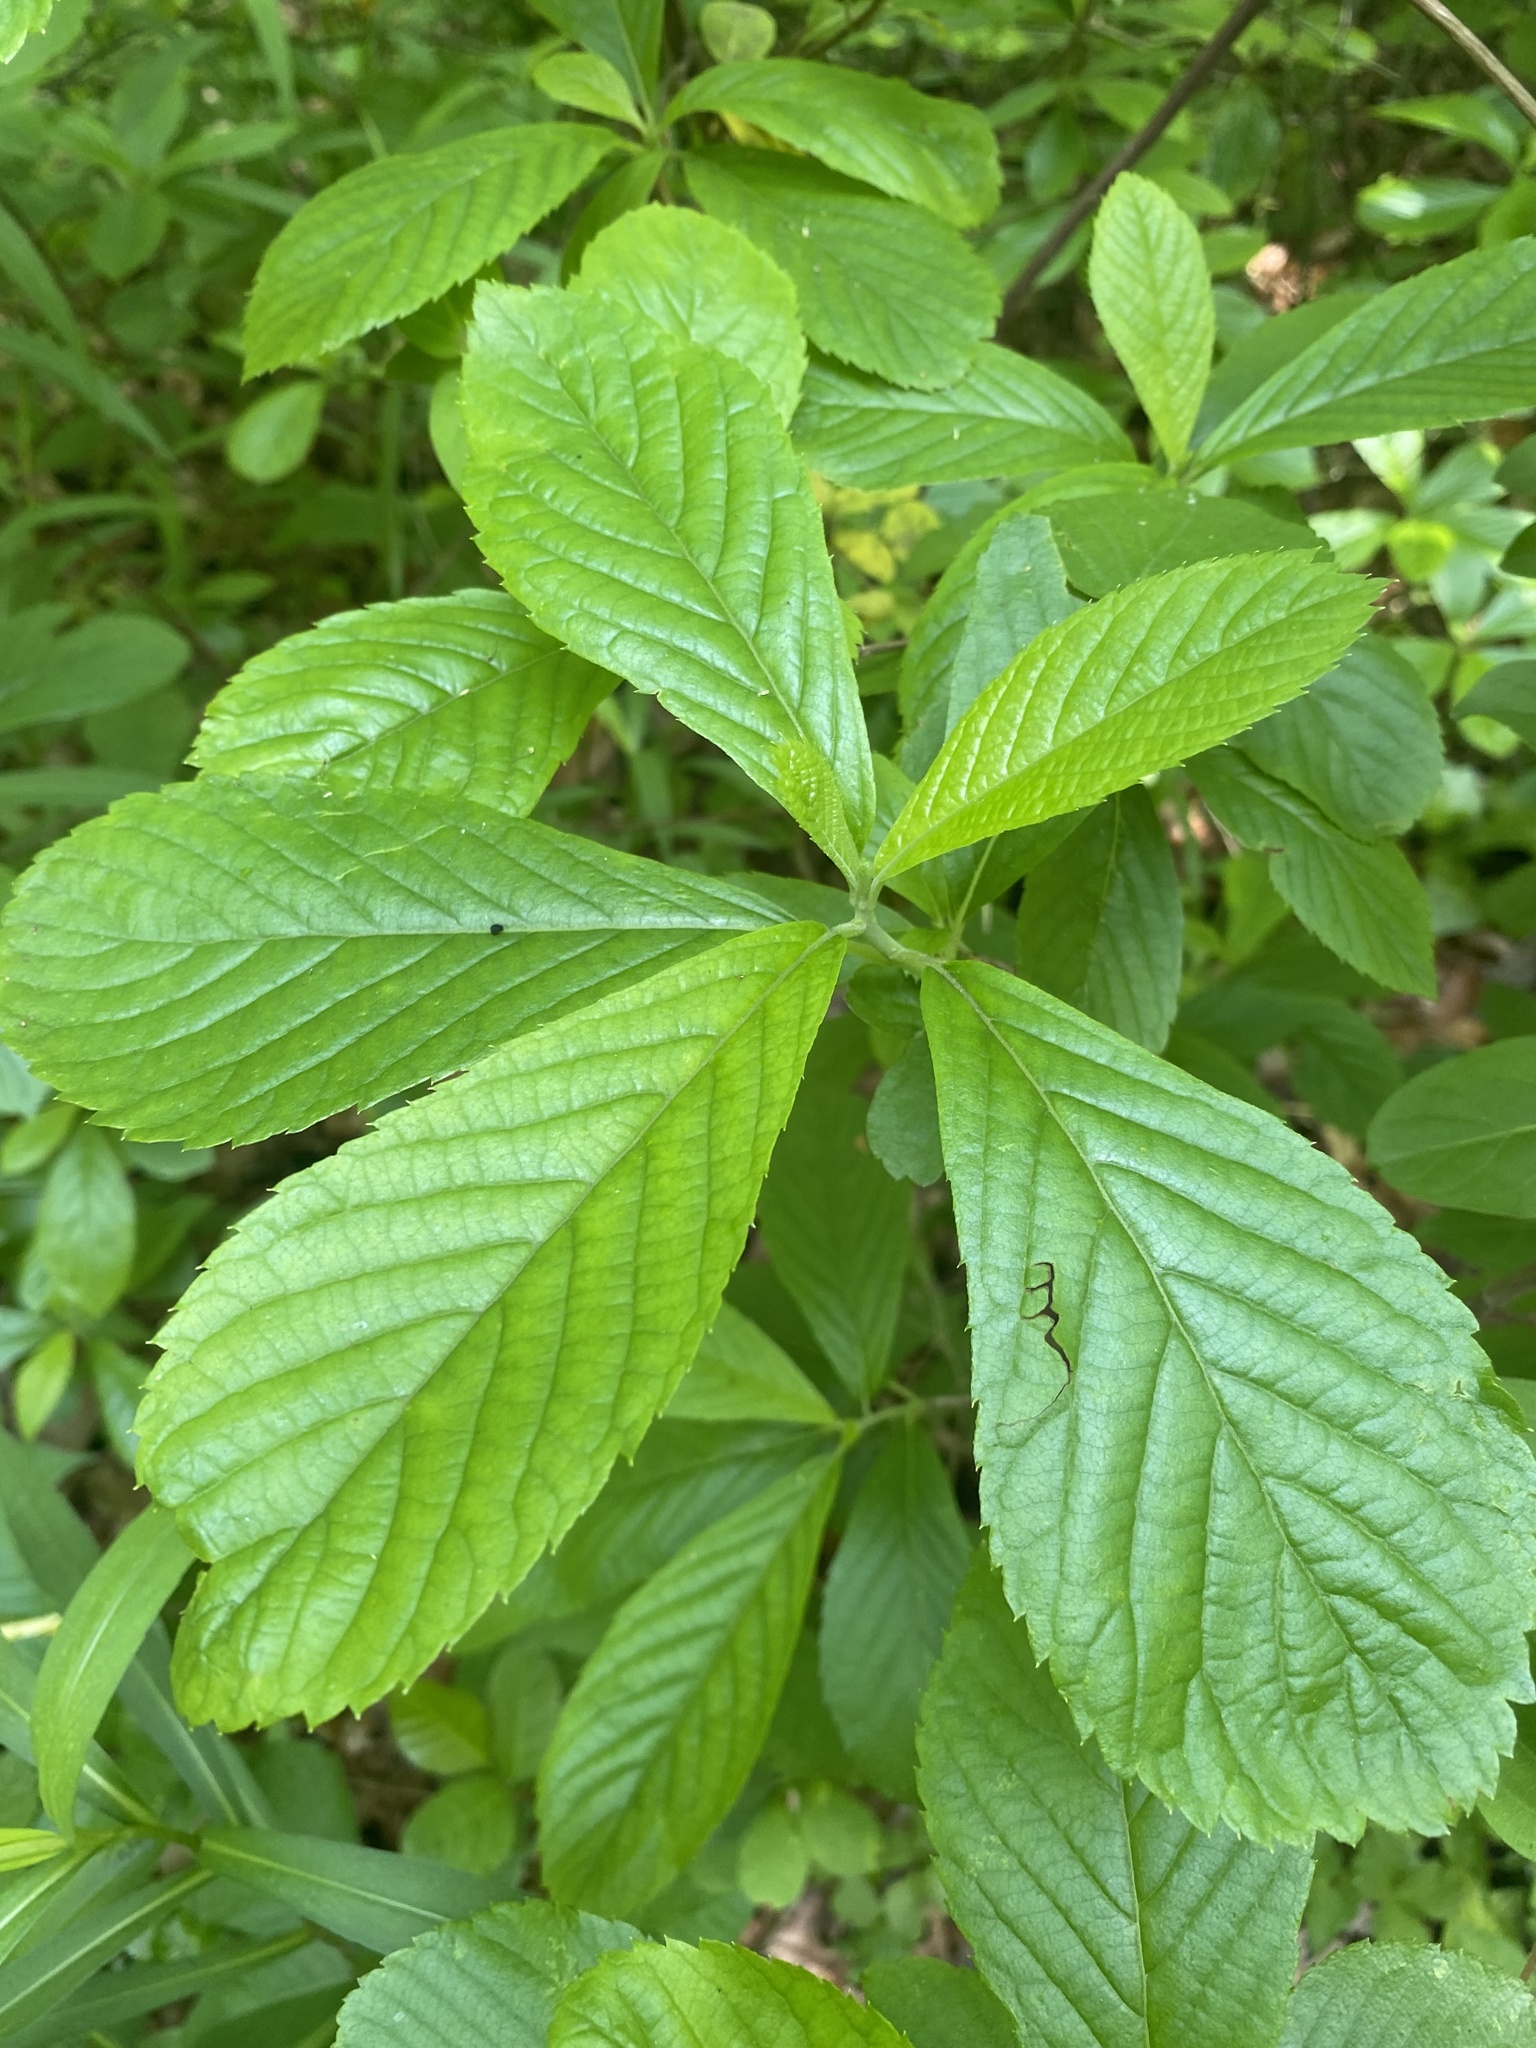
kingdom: Plantae
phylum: Tracheophyta
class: Magnoliopsida
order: Ericales
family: Clethraceae
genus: Clethra
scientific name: Clethra alnifolia
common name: Sweet pepperbush
